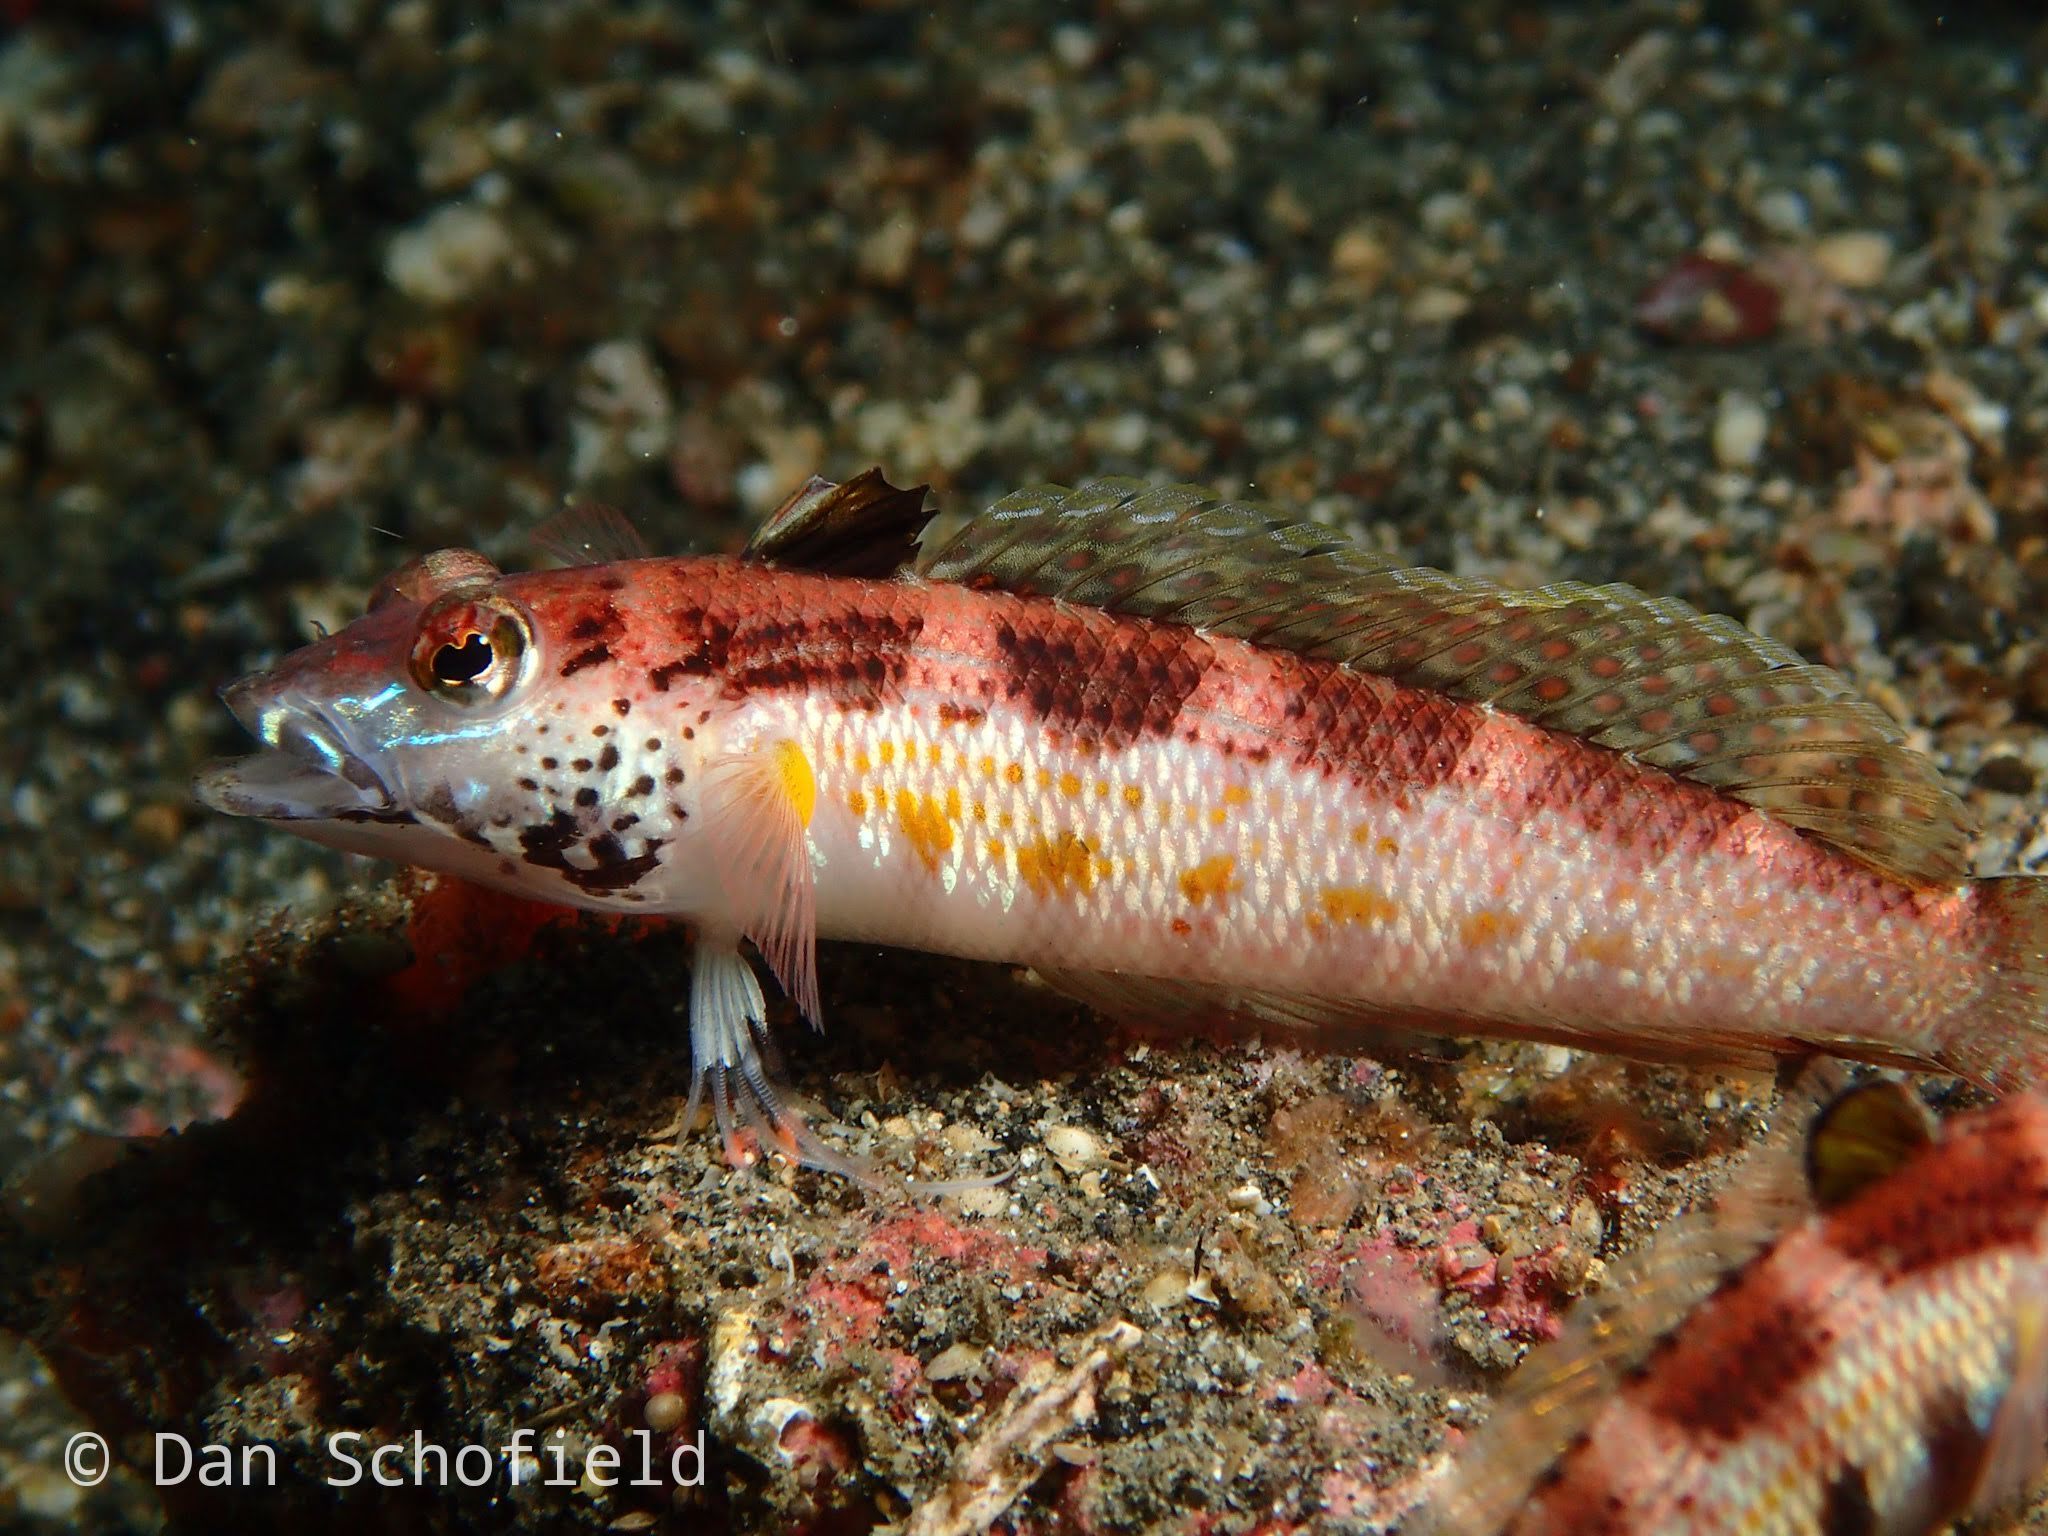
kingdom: Animalia
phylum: Chordata
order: Perciformes
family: Pinguipedidae
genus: Parapercis
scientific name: Parapercis snyderi
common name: U-mark sandperch
